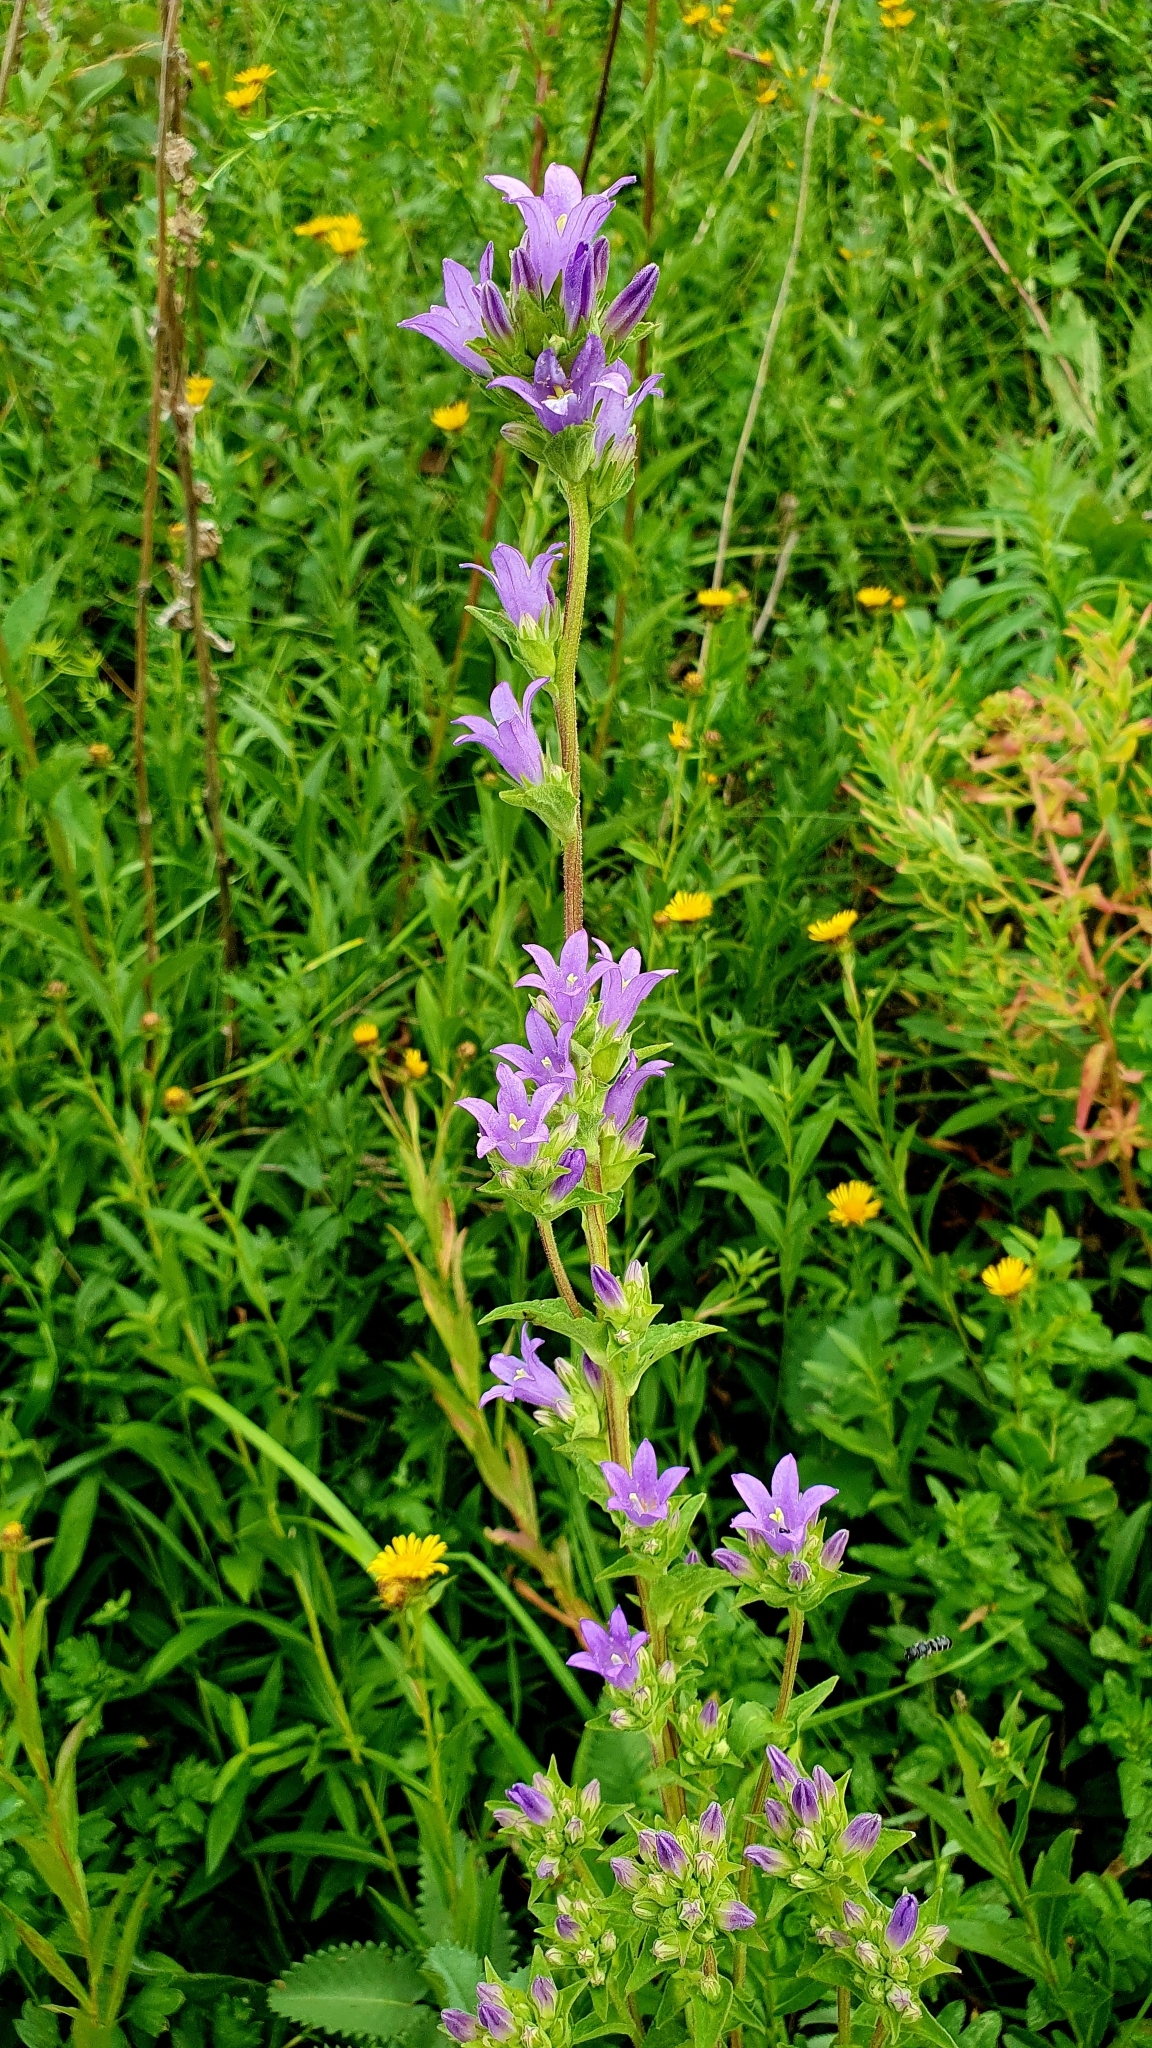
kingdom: Plantae
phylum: Tracheophyta
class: Magnoliopsida
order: Asterales
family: Campanulaceae
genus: Campanula
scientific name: Campanula glomerata
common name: Clustered bellflower
